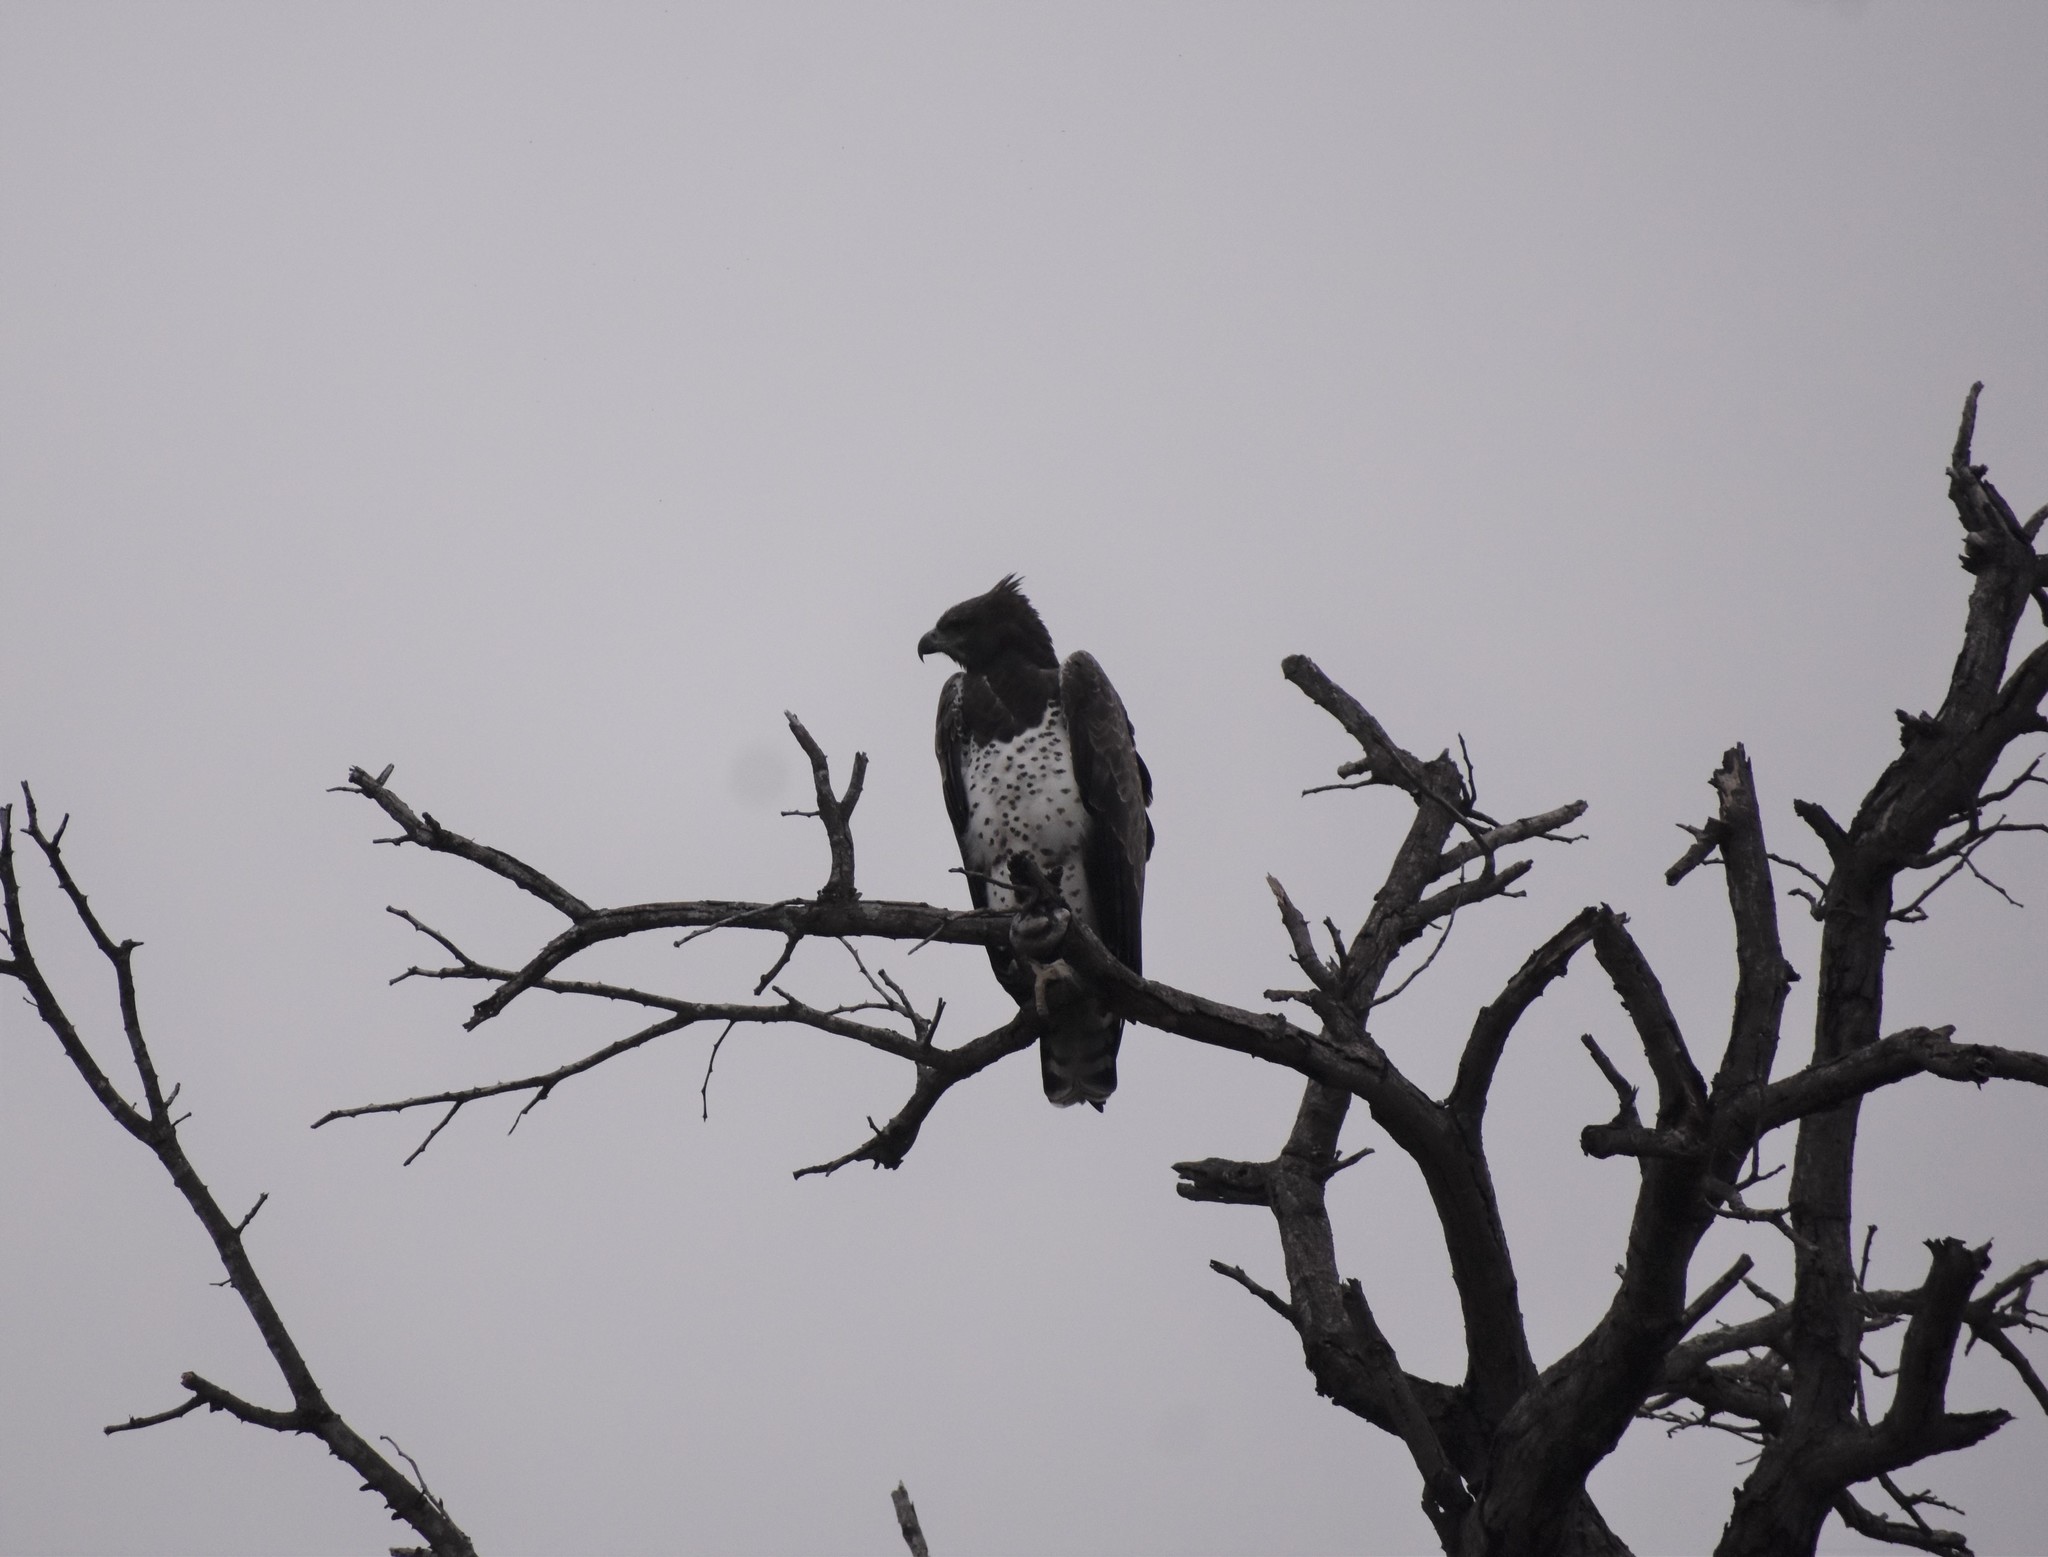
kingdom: Animalia
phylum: Chordata
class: Aves
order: Accipitriformes
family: Accipitridae
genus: Polemaetus
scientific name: Polemaetus bellicosus
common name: Martial eagle
